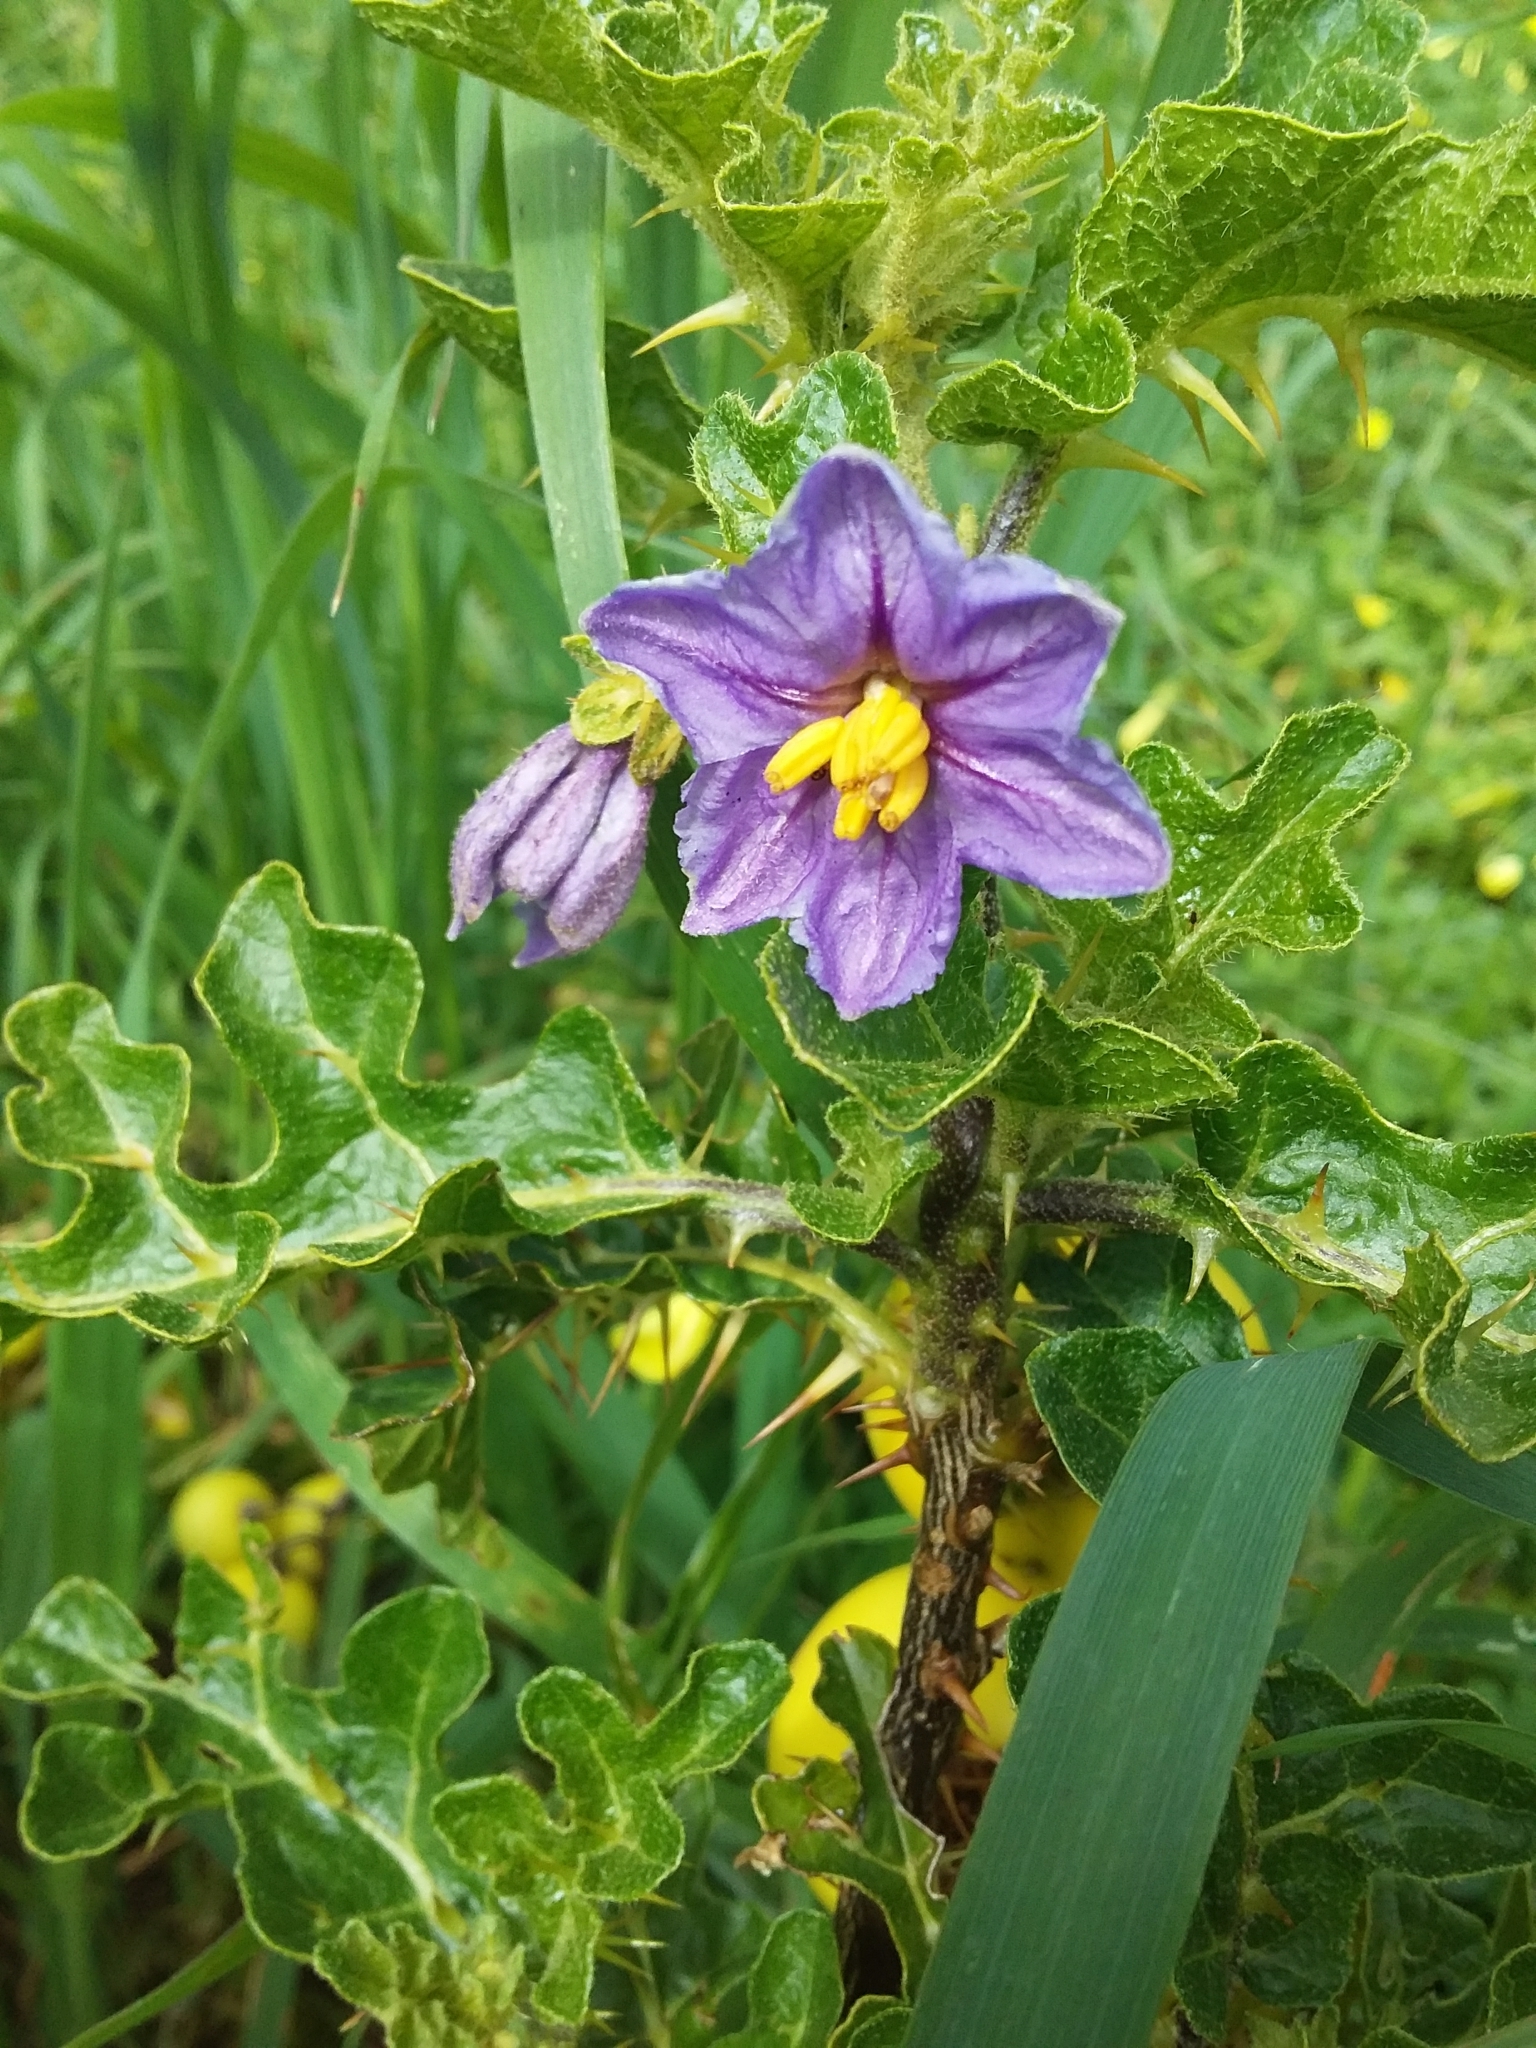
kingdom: Plantae
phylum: Tracheophyta
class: Magnoliopsida
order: Solanales
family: Solanaceae
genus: Solanum
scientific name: Solanum linnaeanum
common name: Nightshade
